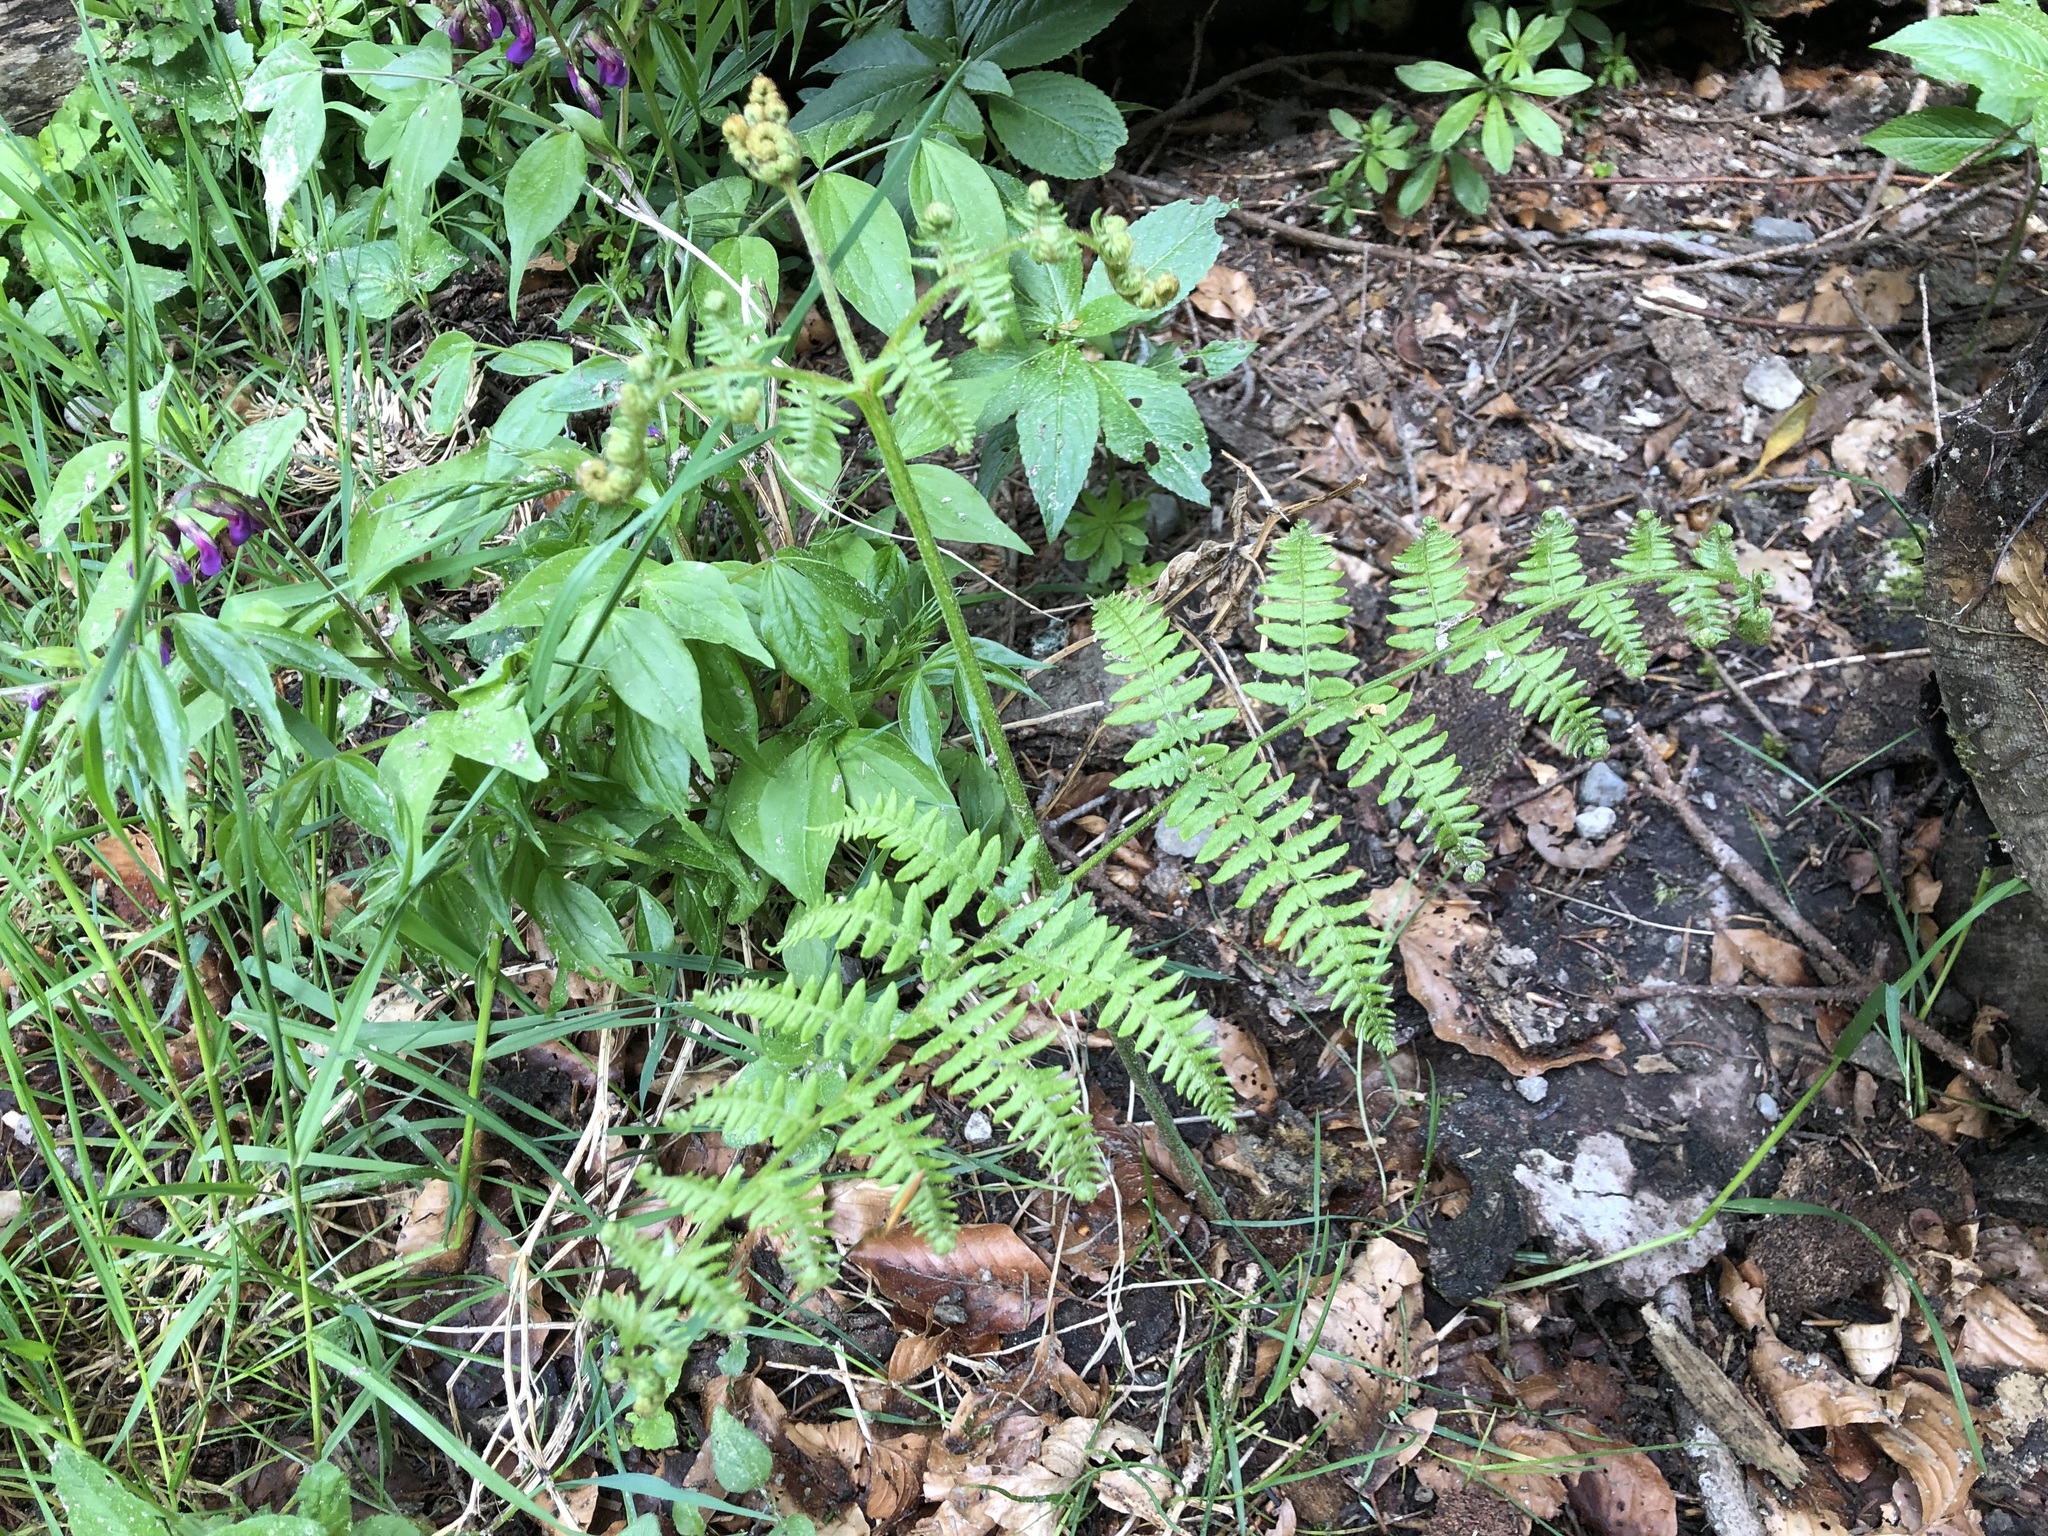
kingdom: Plantae
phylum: Tracheophyta
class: Polypodiopsida
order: Polypodiales
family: Dennstaedtiaceae
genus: Pteridium
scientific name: Pteridium aquilinum
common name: Bracken
